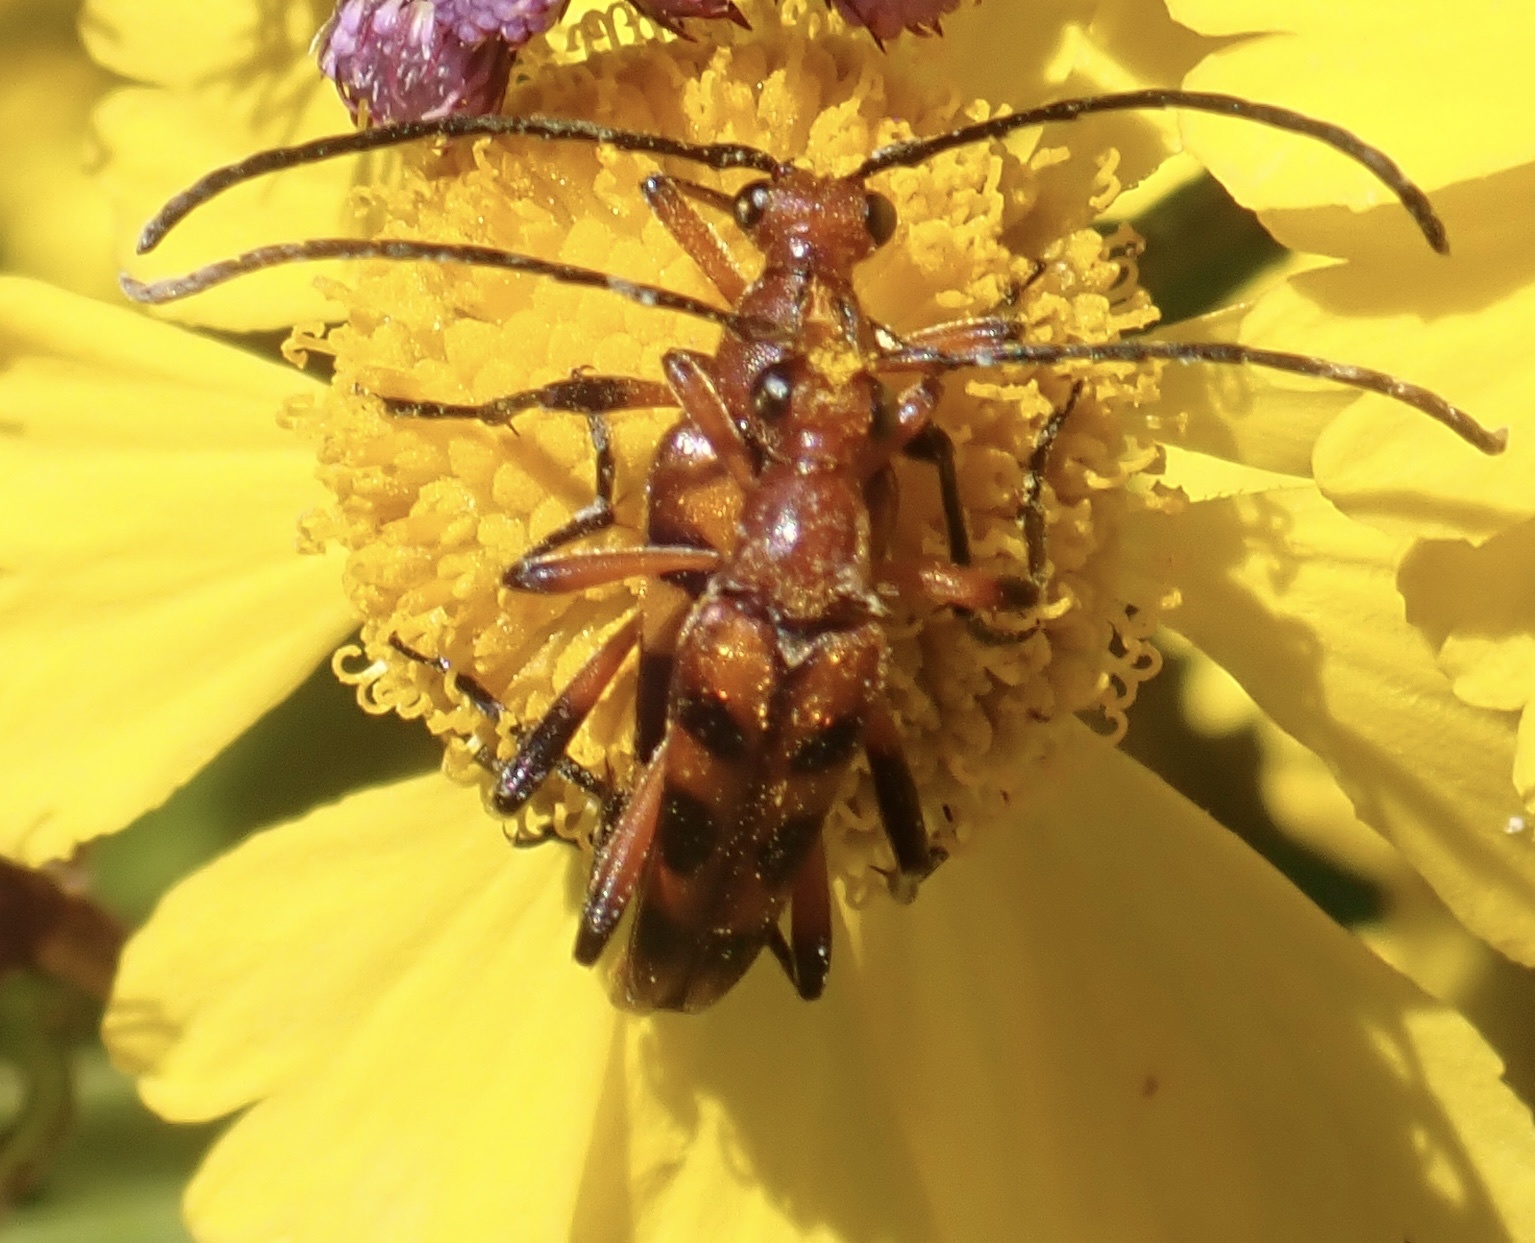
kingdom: Animalia
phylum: Arthropoda
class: Insecta
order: Coleoptera
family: Cerambycidae
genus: Strangalia
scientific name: Strangalia sexnotata
